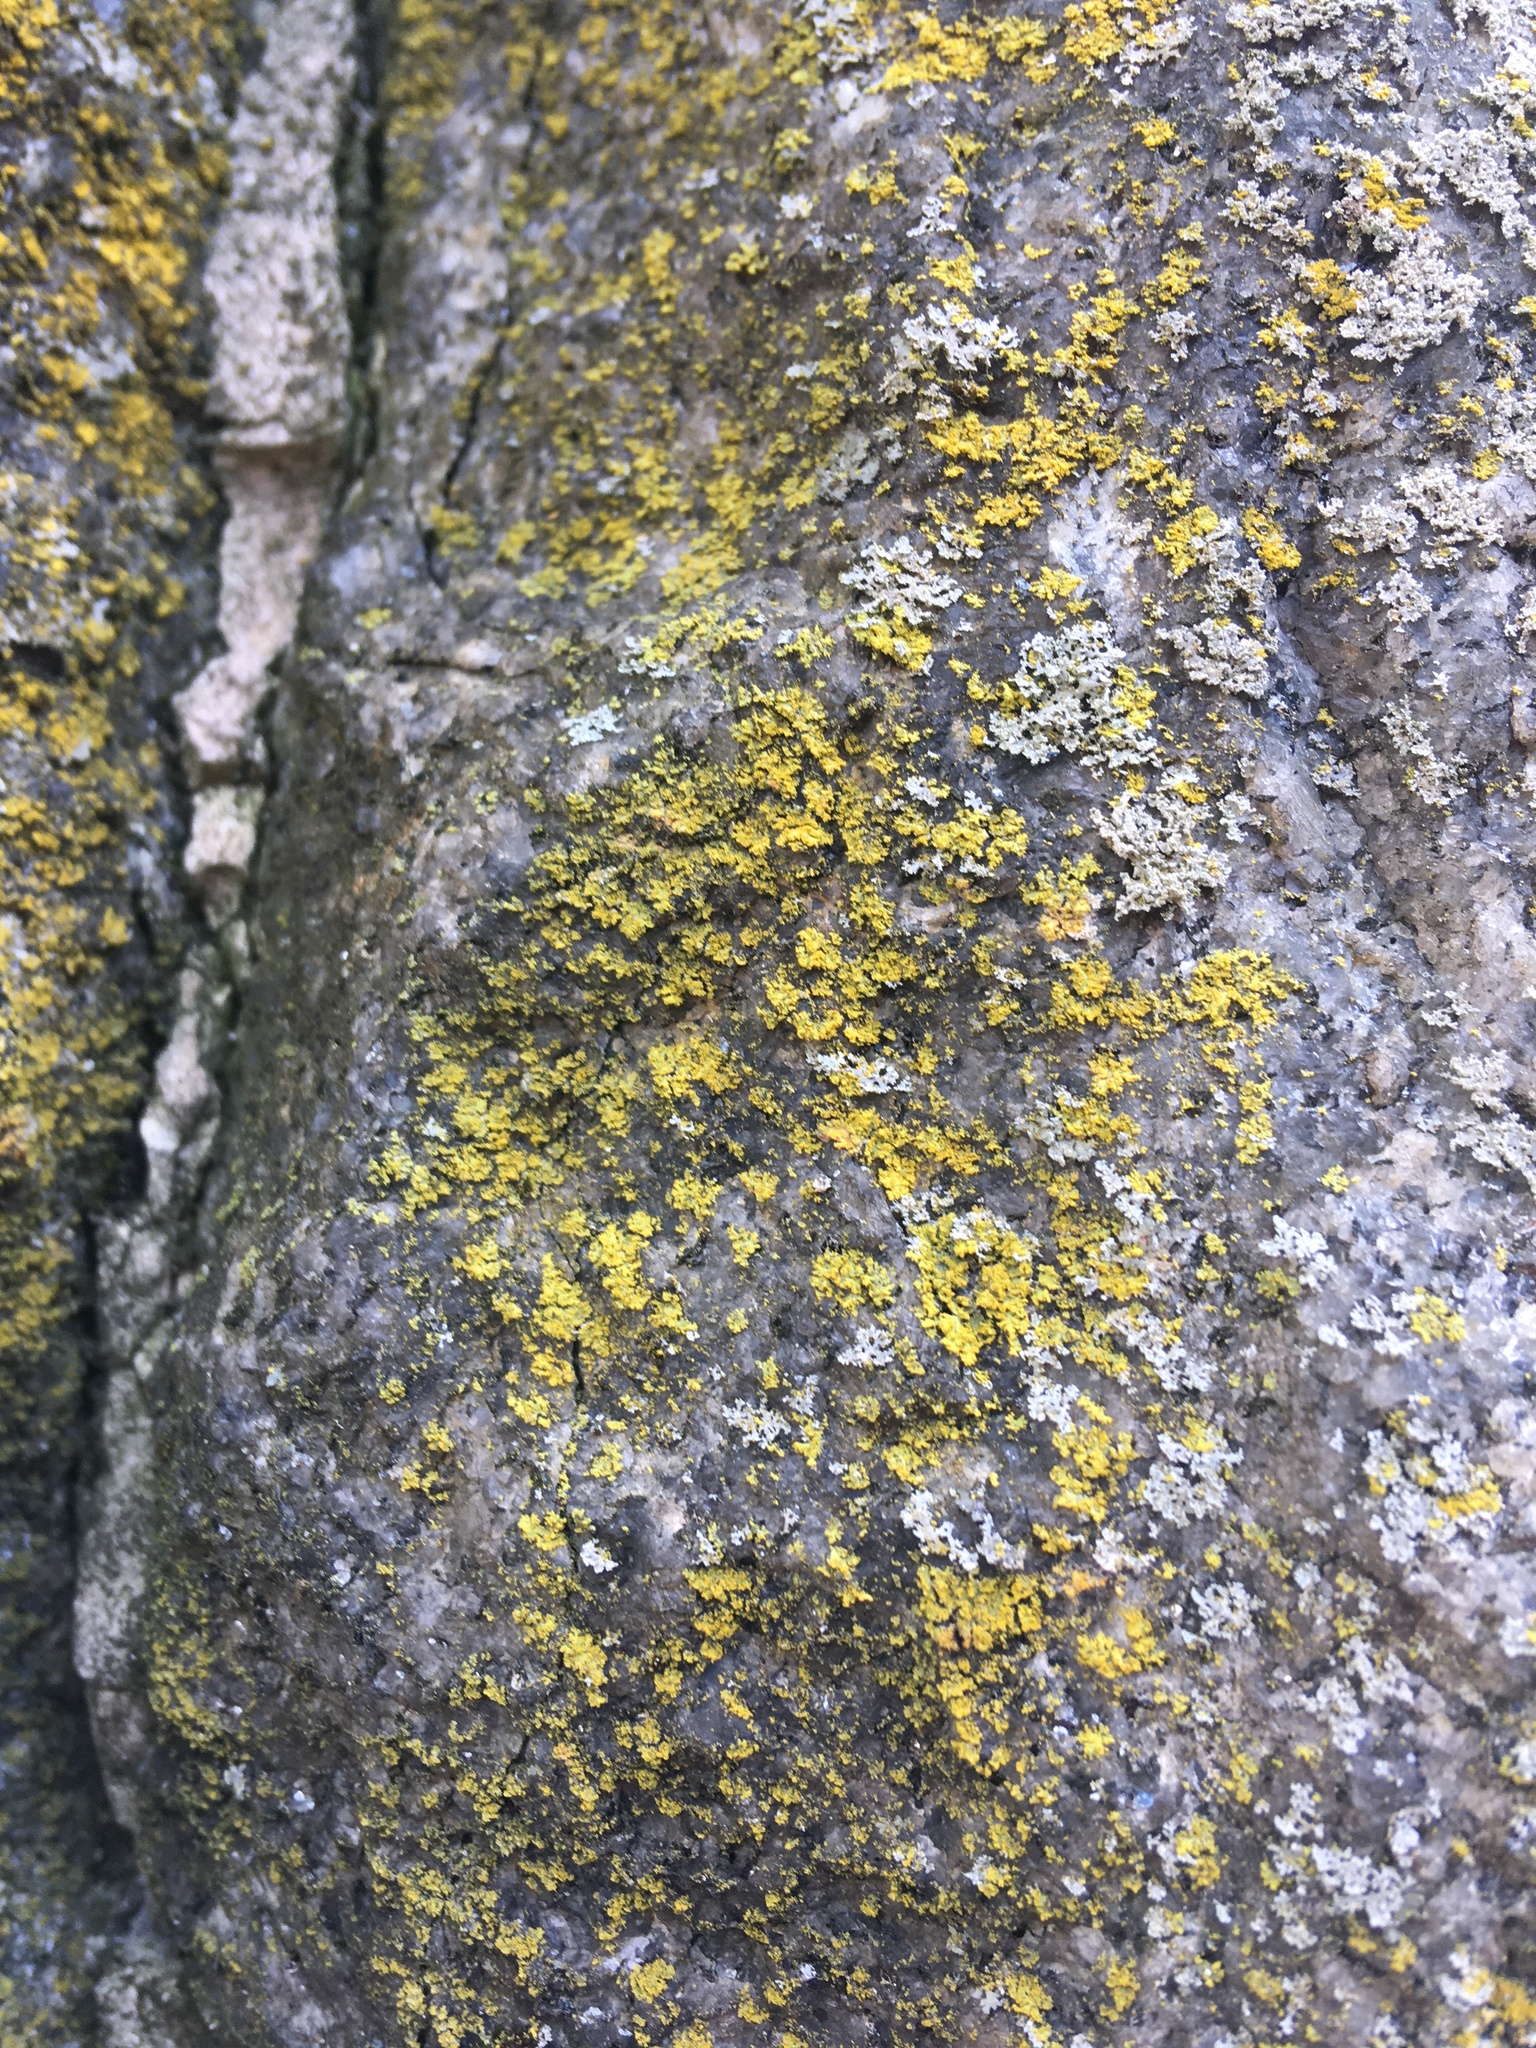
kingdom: Fungi
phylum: Ascomycota
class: Candelariomycetes
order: Candelariales
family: Candelariaceae
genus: Candelaria
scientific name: Candelaria concolor
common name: Candleflame lichen
